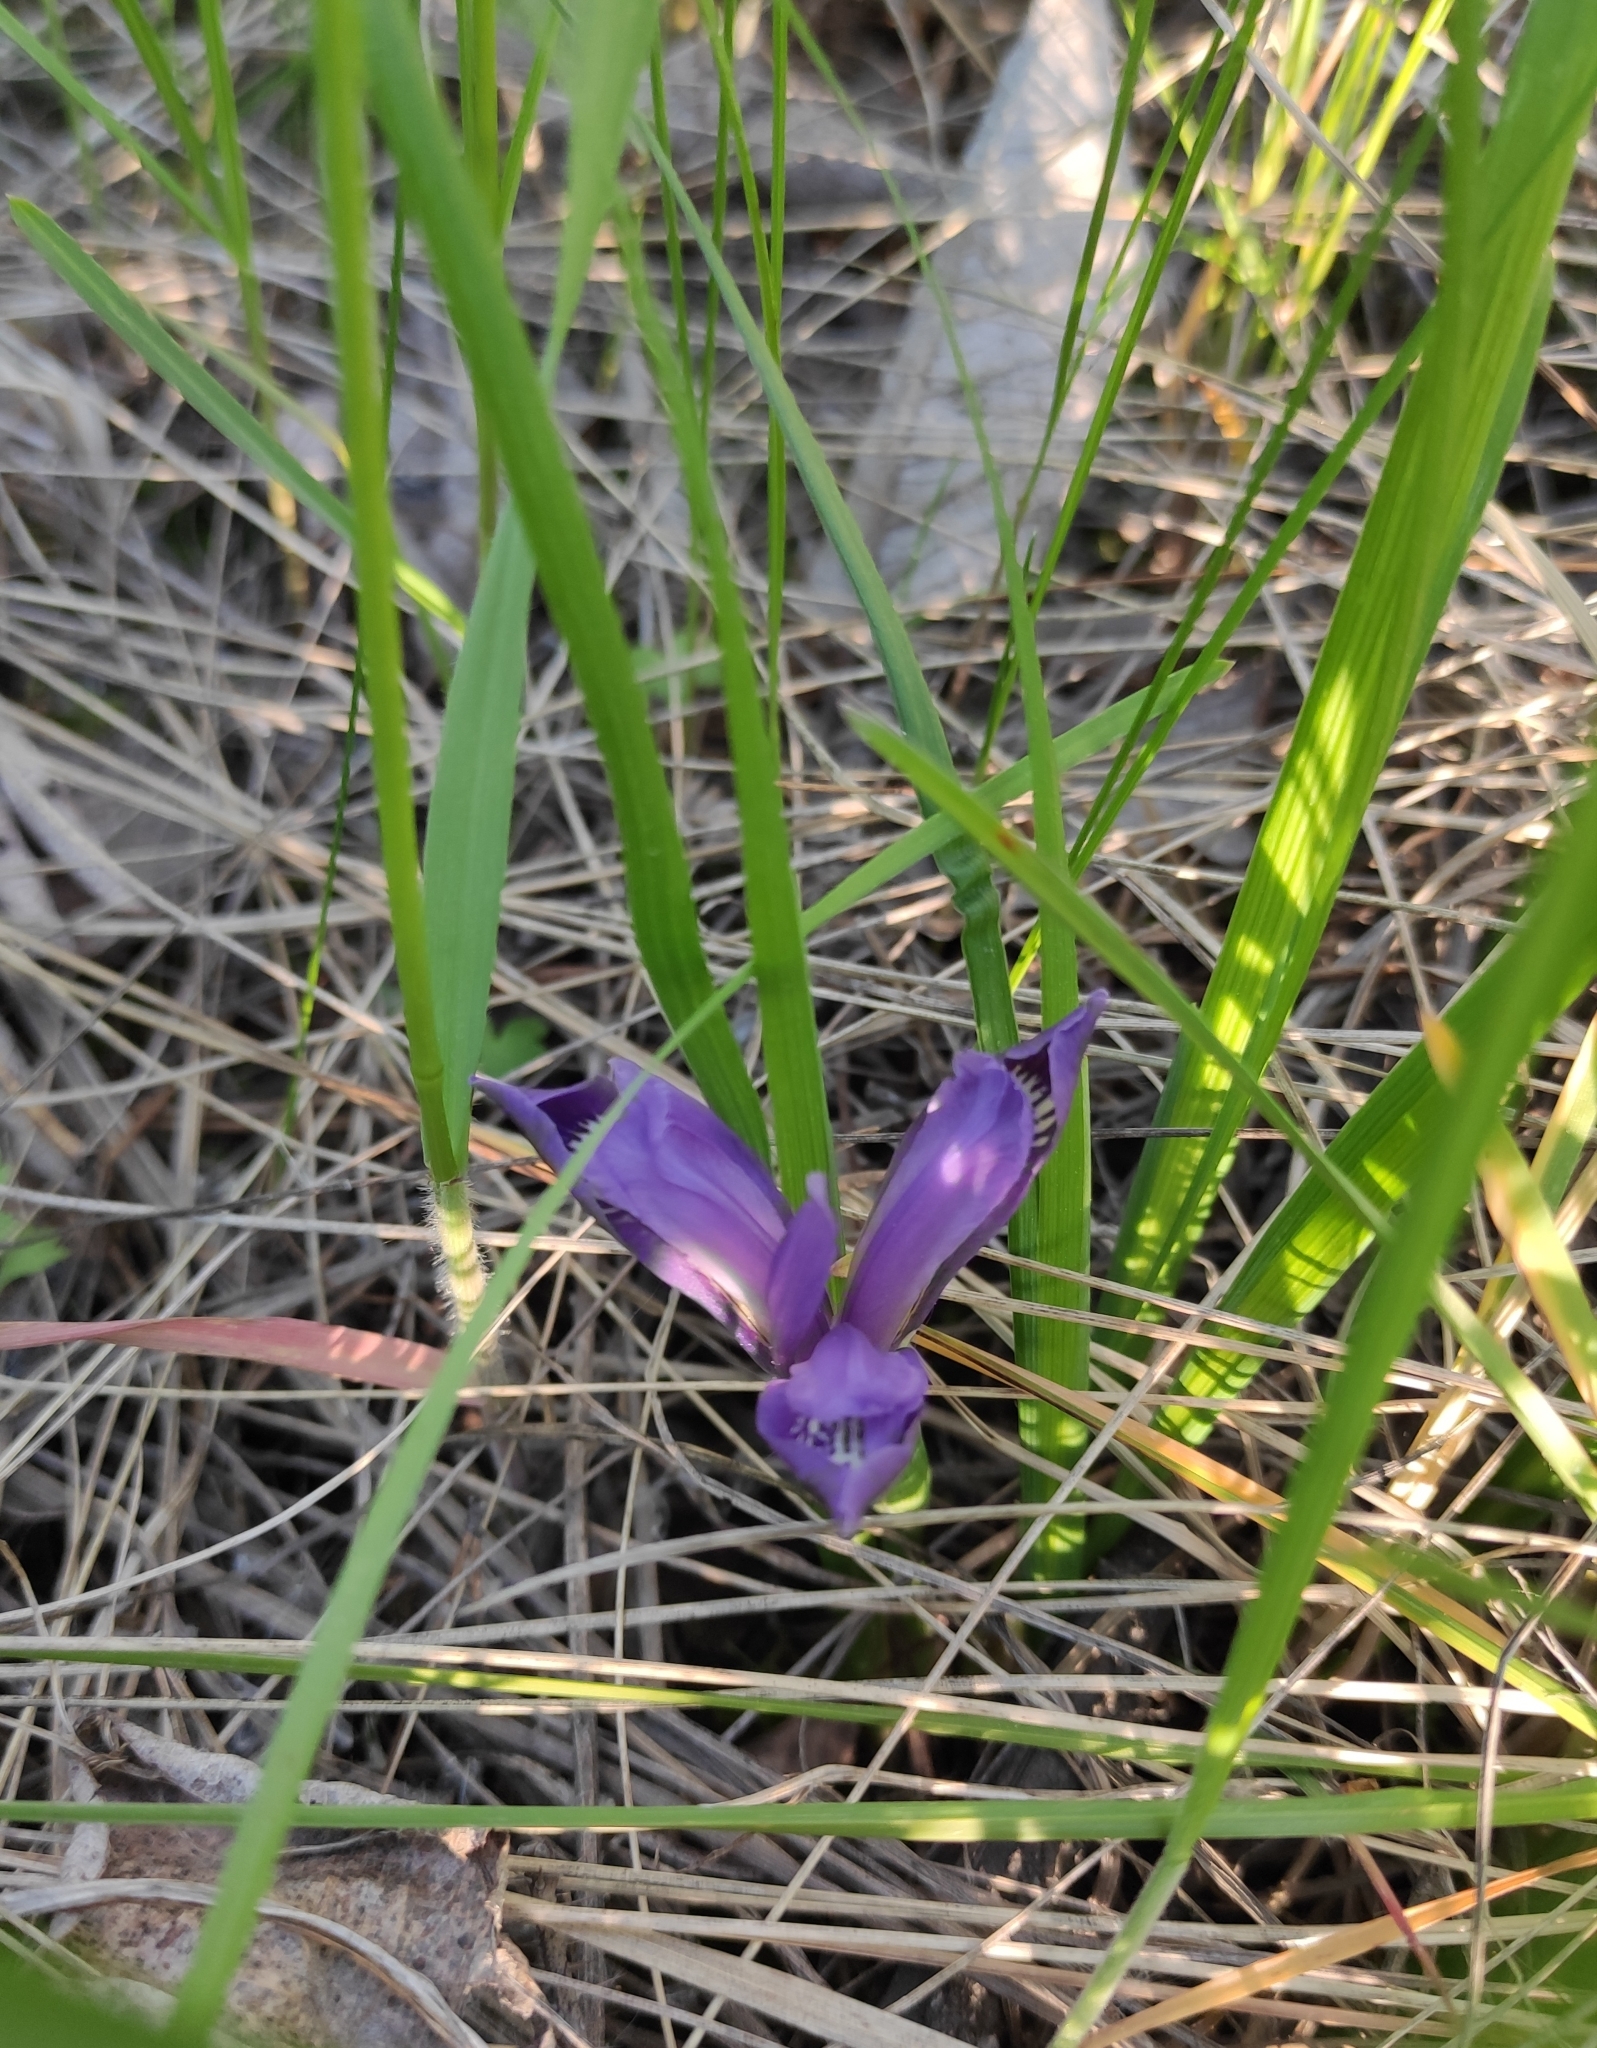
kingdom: Plantae
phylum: Tracheophyta
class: Liliopsida
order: Asparagales
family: Iridaceae
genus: Iris
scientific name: Iris ruthenica
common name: Purple-bract iris
